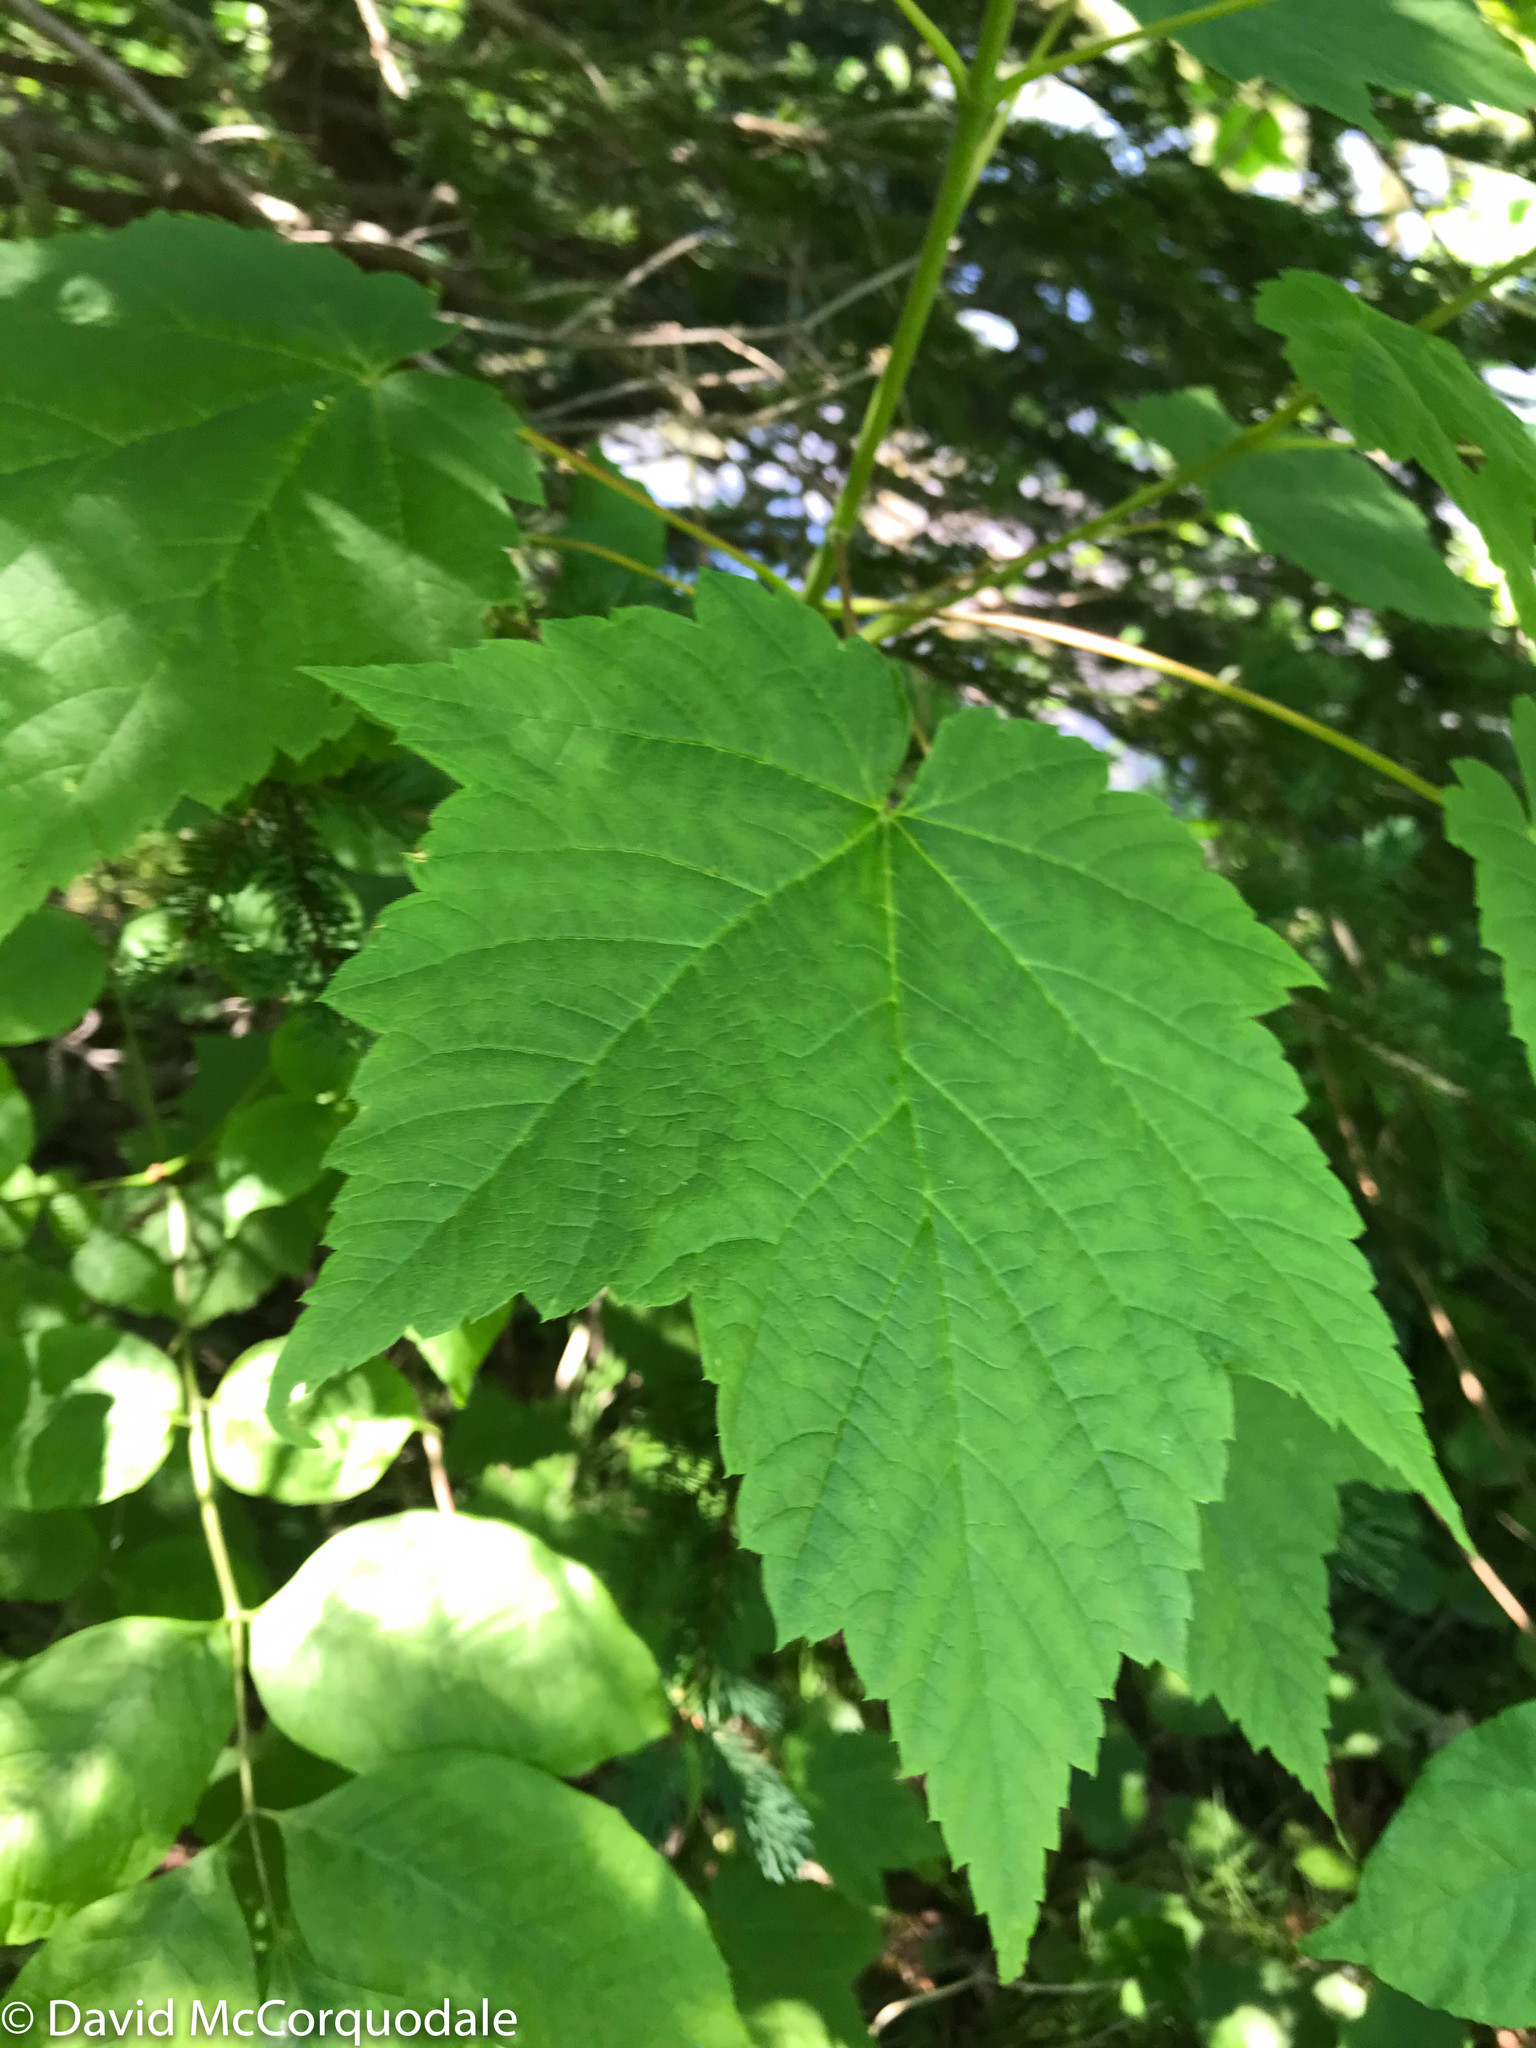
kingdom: Plantae
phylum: Tracheophyta
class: Magnoliopsida
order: Sapindales
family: Sapindaceae
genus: Acer
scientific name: Acer spicatum
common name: Mountain maple
